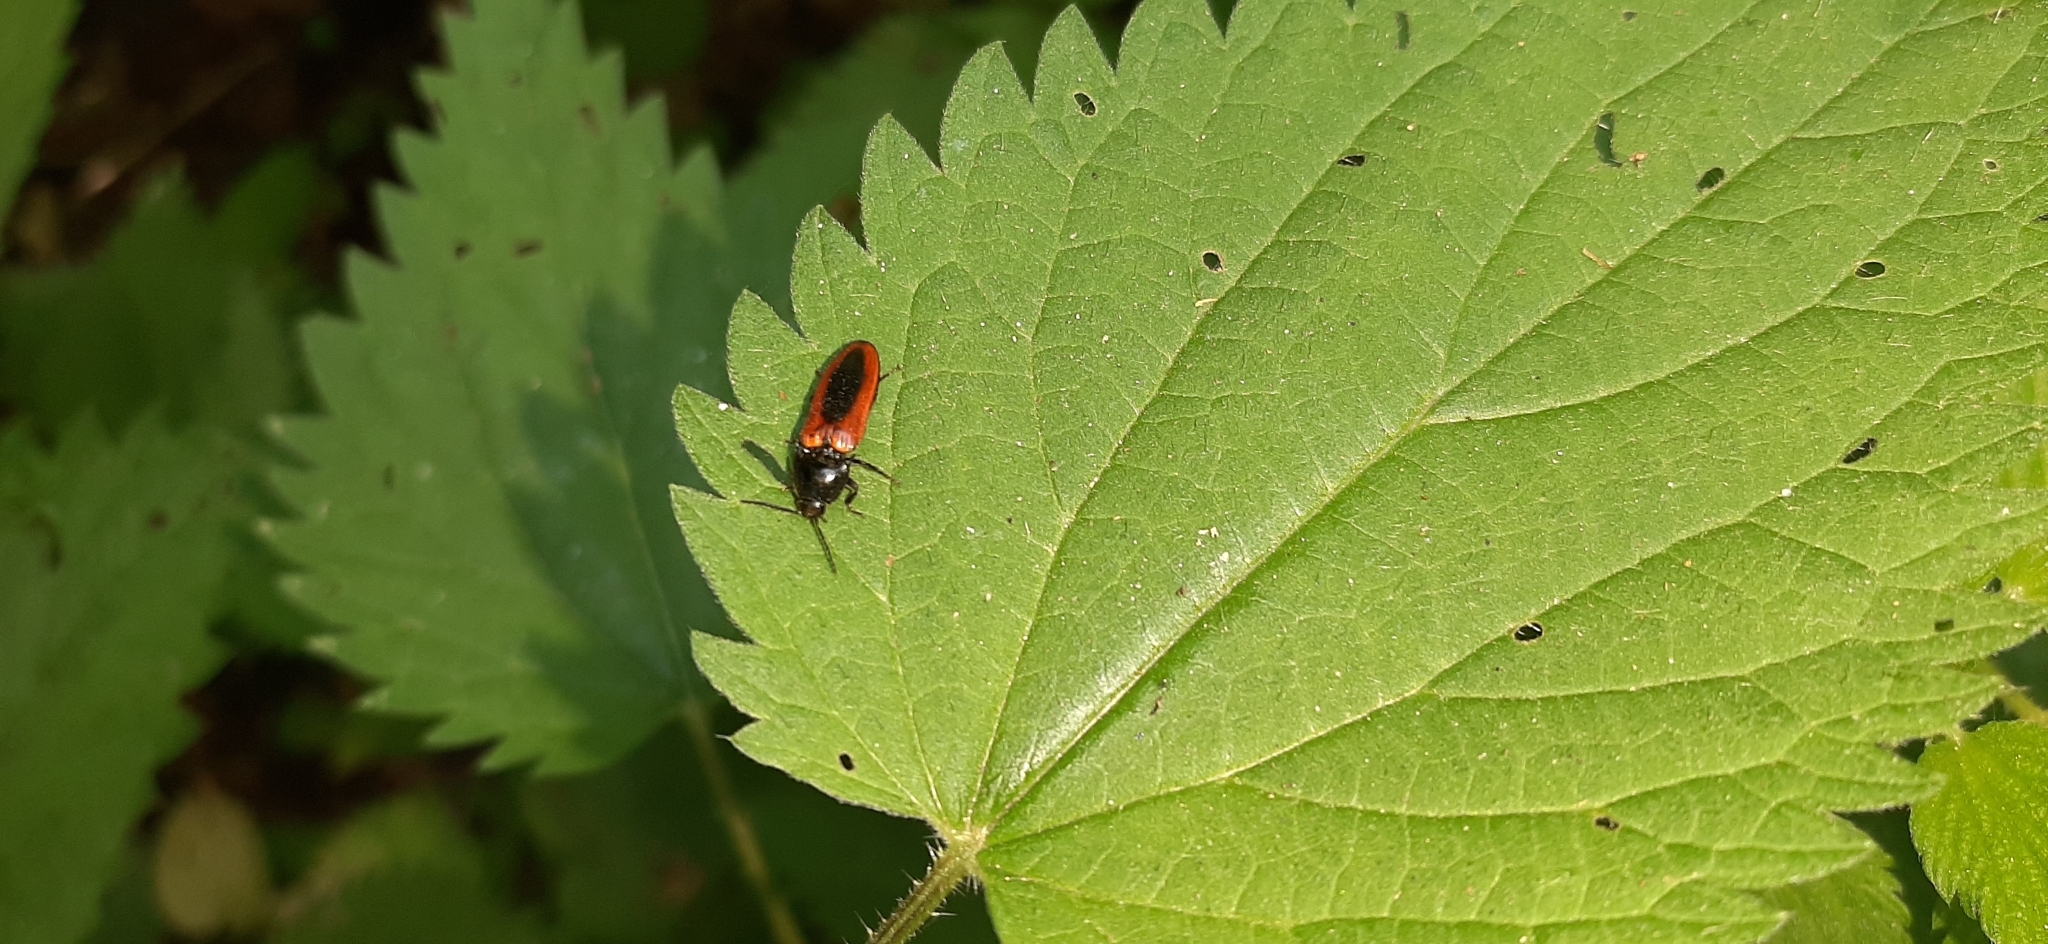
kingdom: Animalia
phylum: Arthropoda
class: Insecta
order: Coleoptera
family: Elateridae
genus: Ampedus
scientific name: Ampedus sanguinolentus
